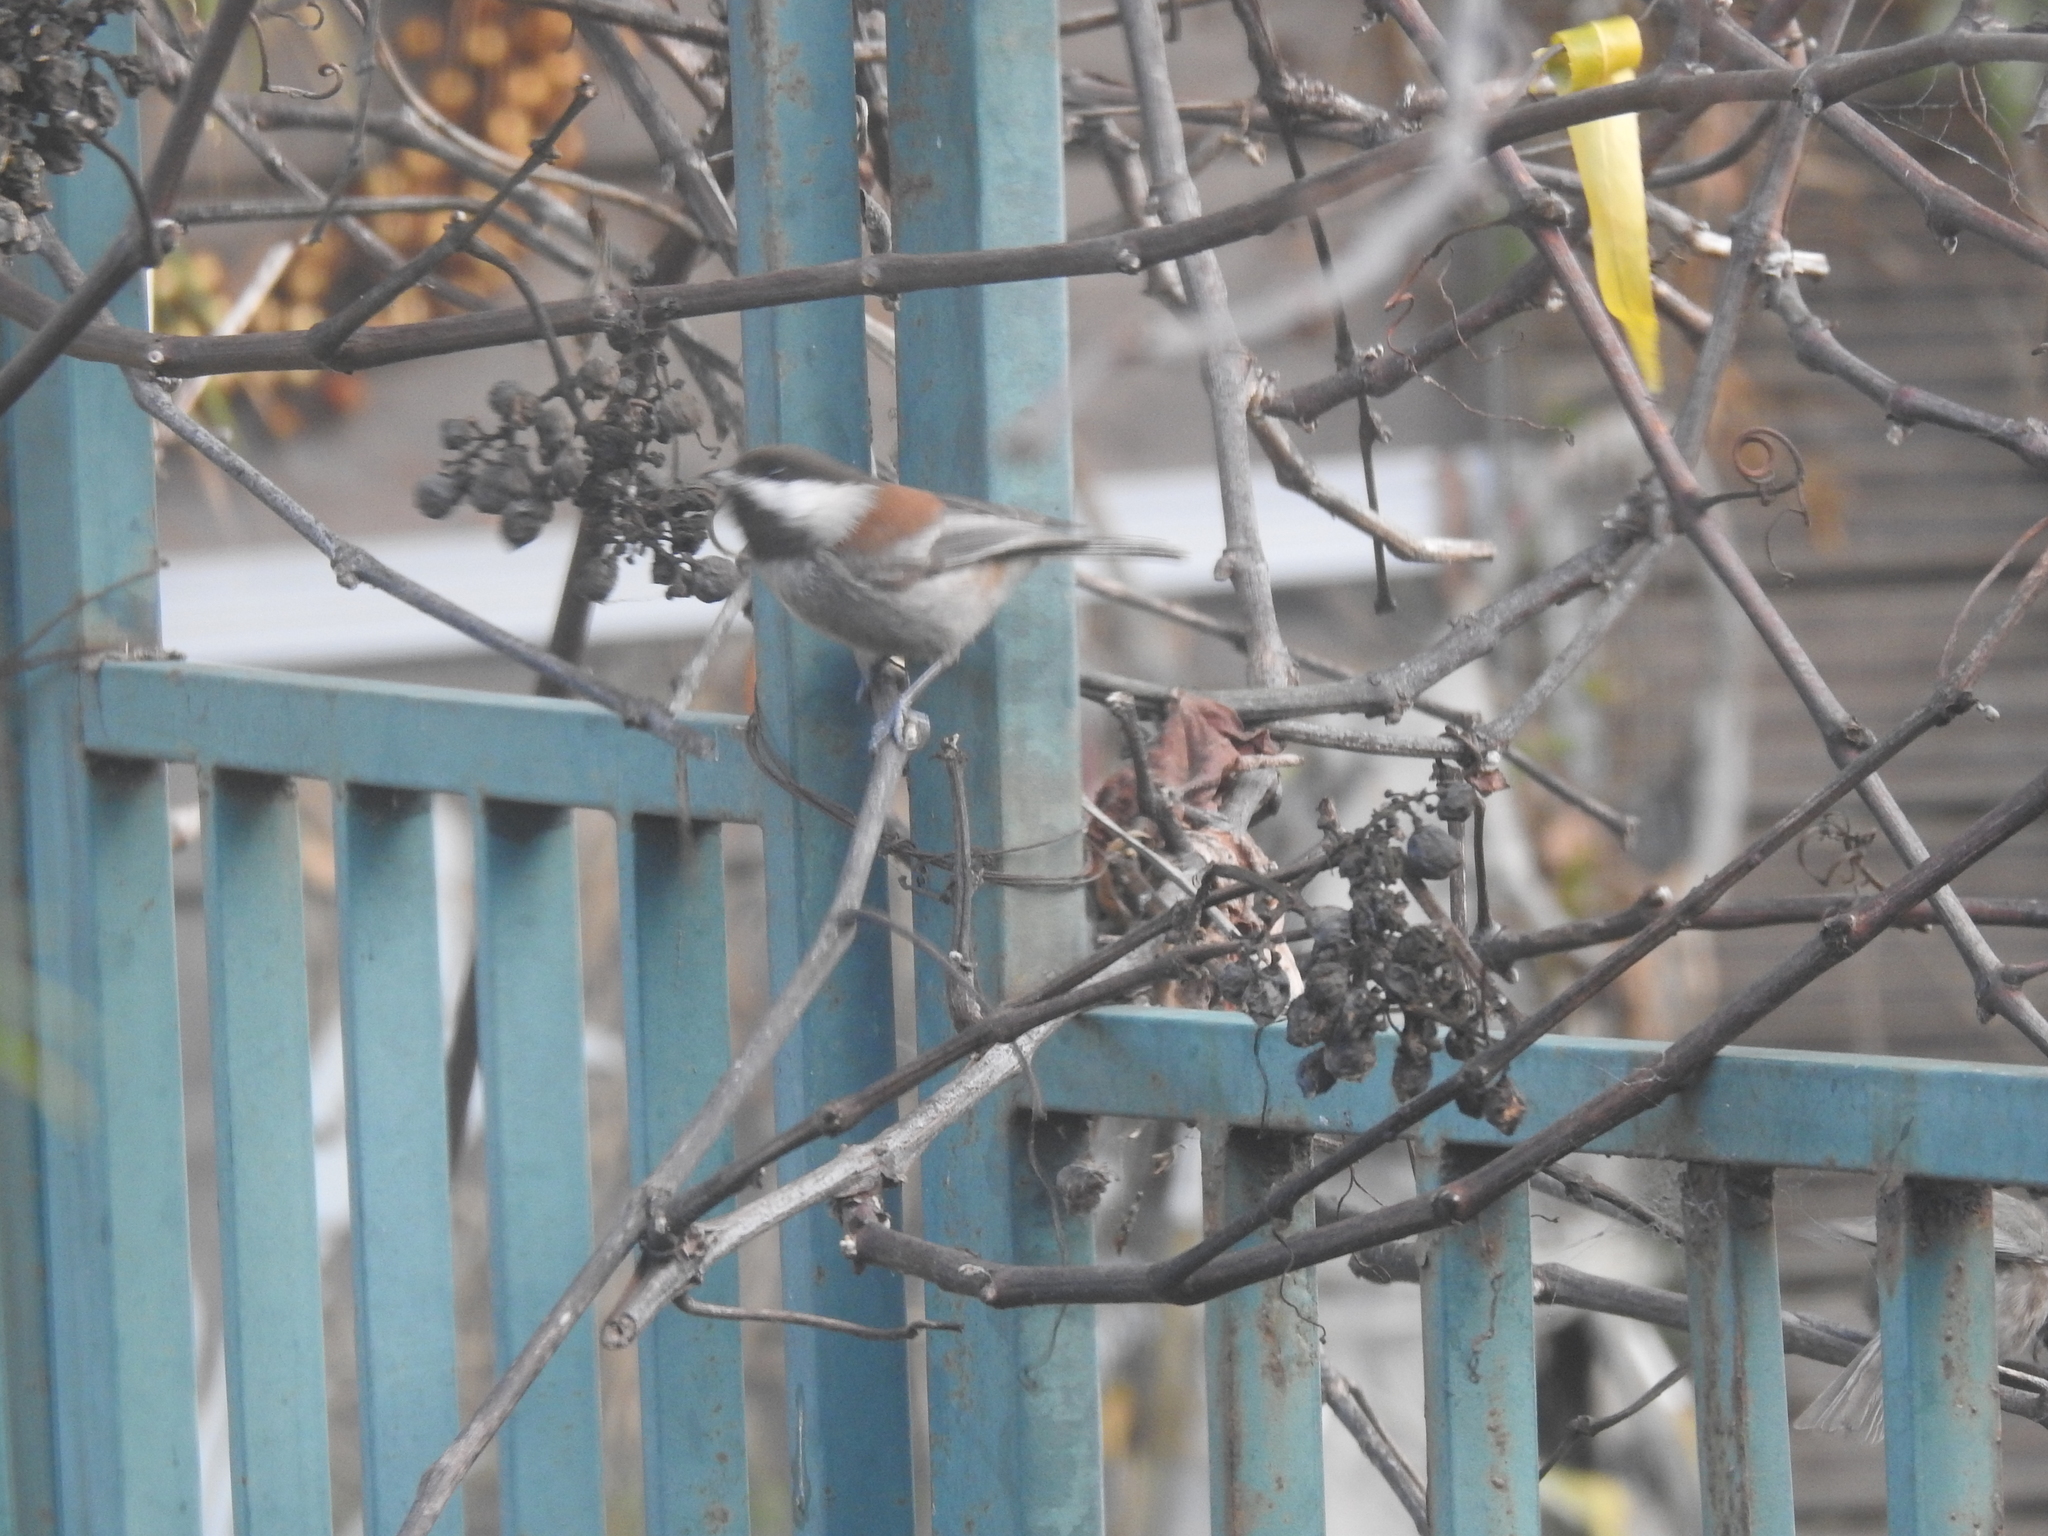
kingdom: Animalia
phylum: Chordata
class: Aves
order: Passeriformes
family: Paridae
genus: Poecile
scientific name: Poecile rufescens
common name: Chestnut-backed chickadee
